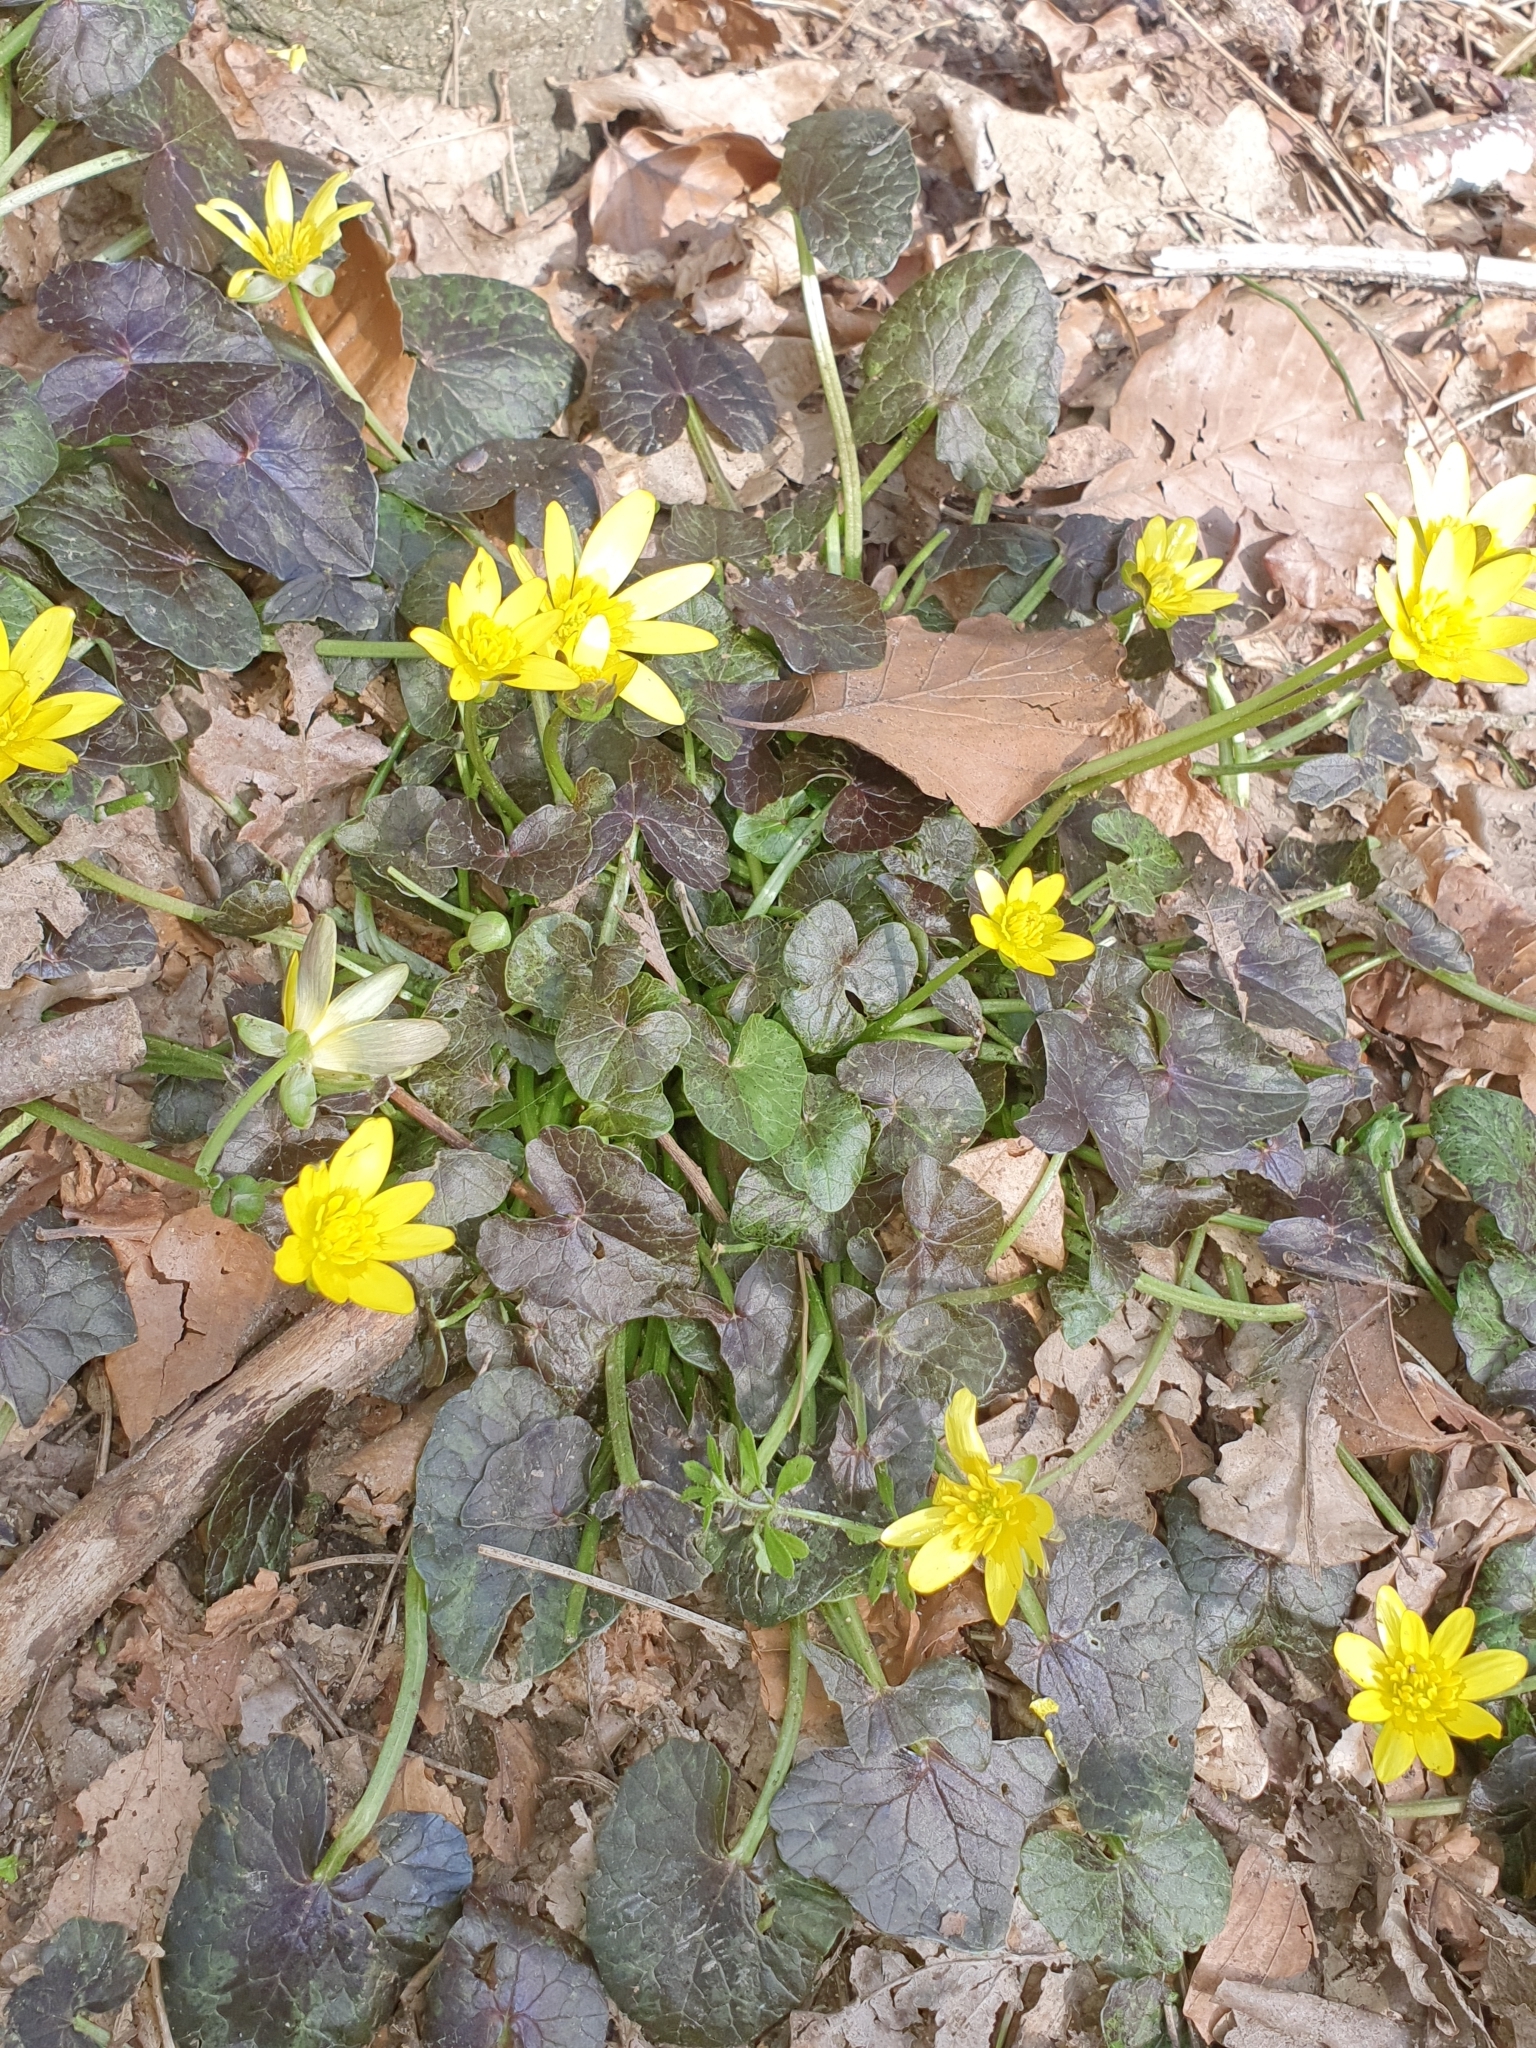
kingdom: Plantae
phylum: Tracheophyta
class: Magnoliopsida
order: Ranunculales
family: Ranunculaceae
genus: Ficaria
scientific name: Ficaria verna
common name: Lesser celandine
